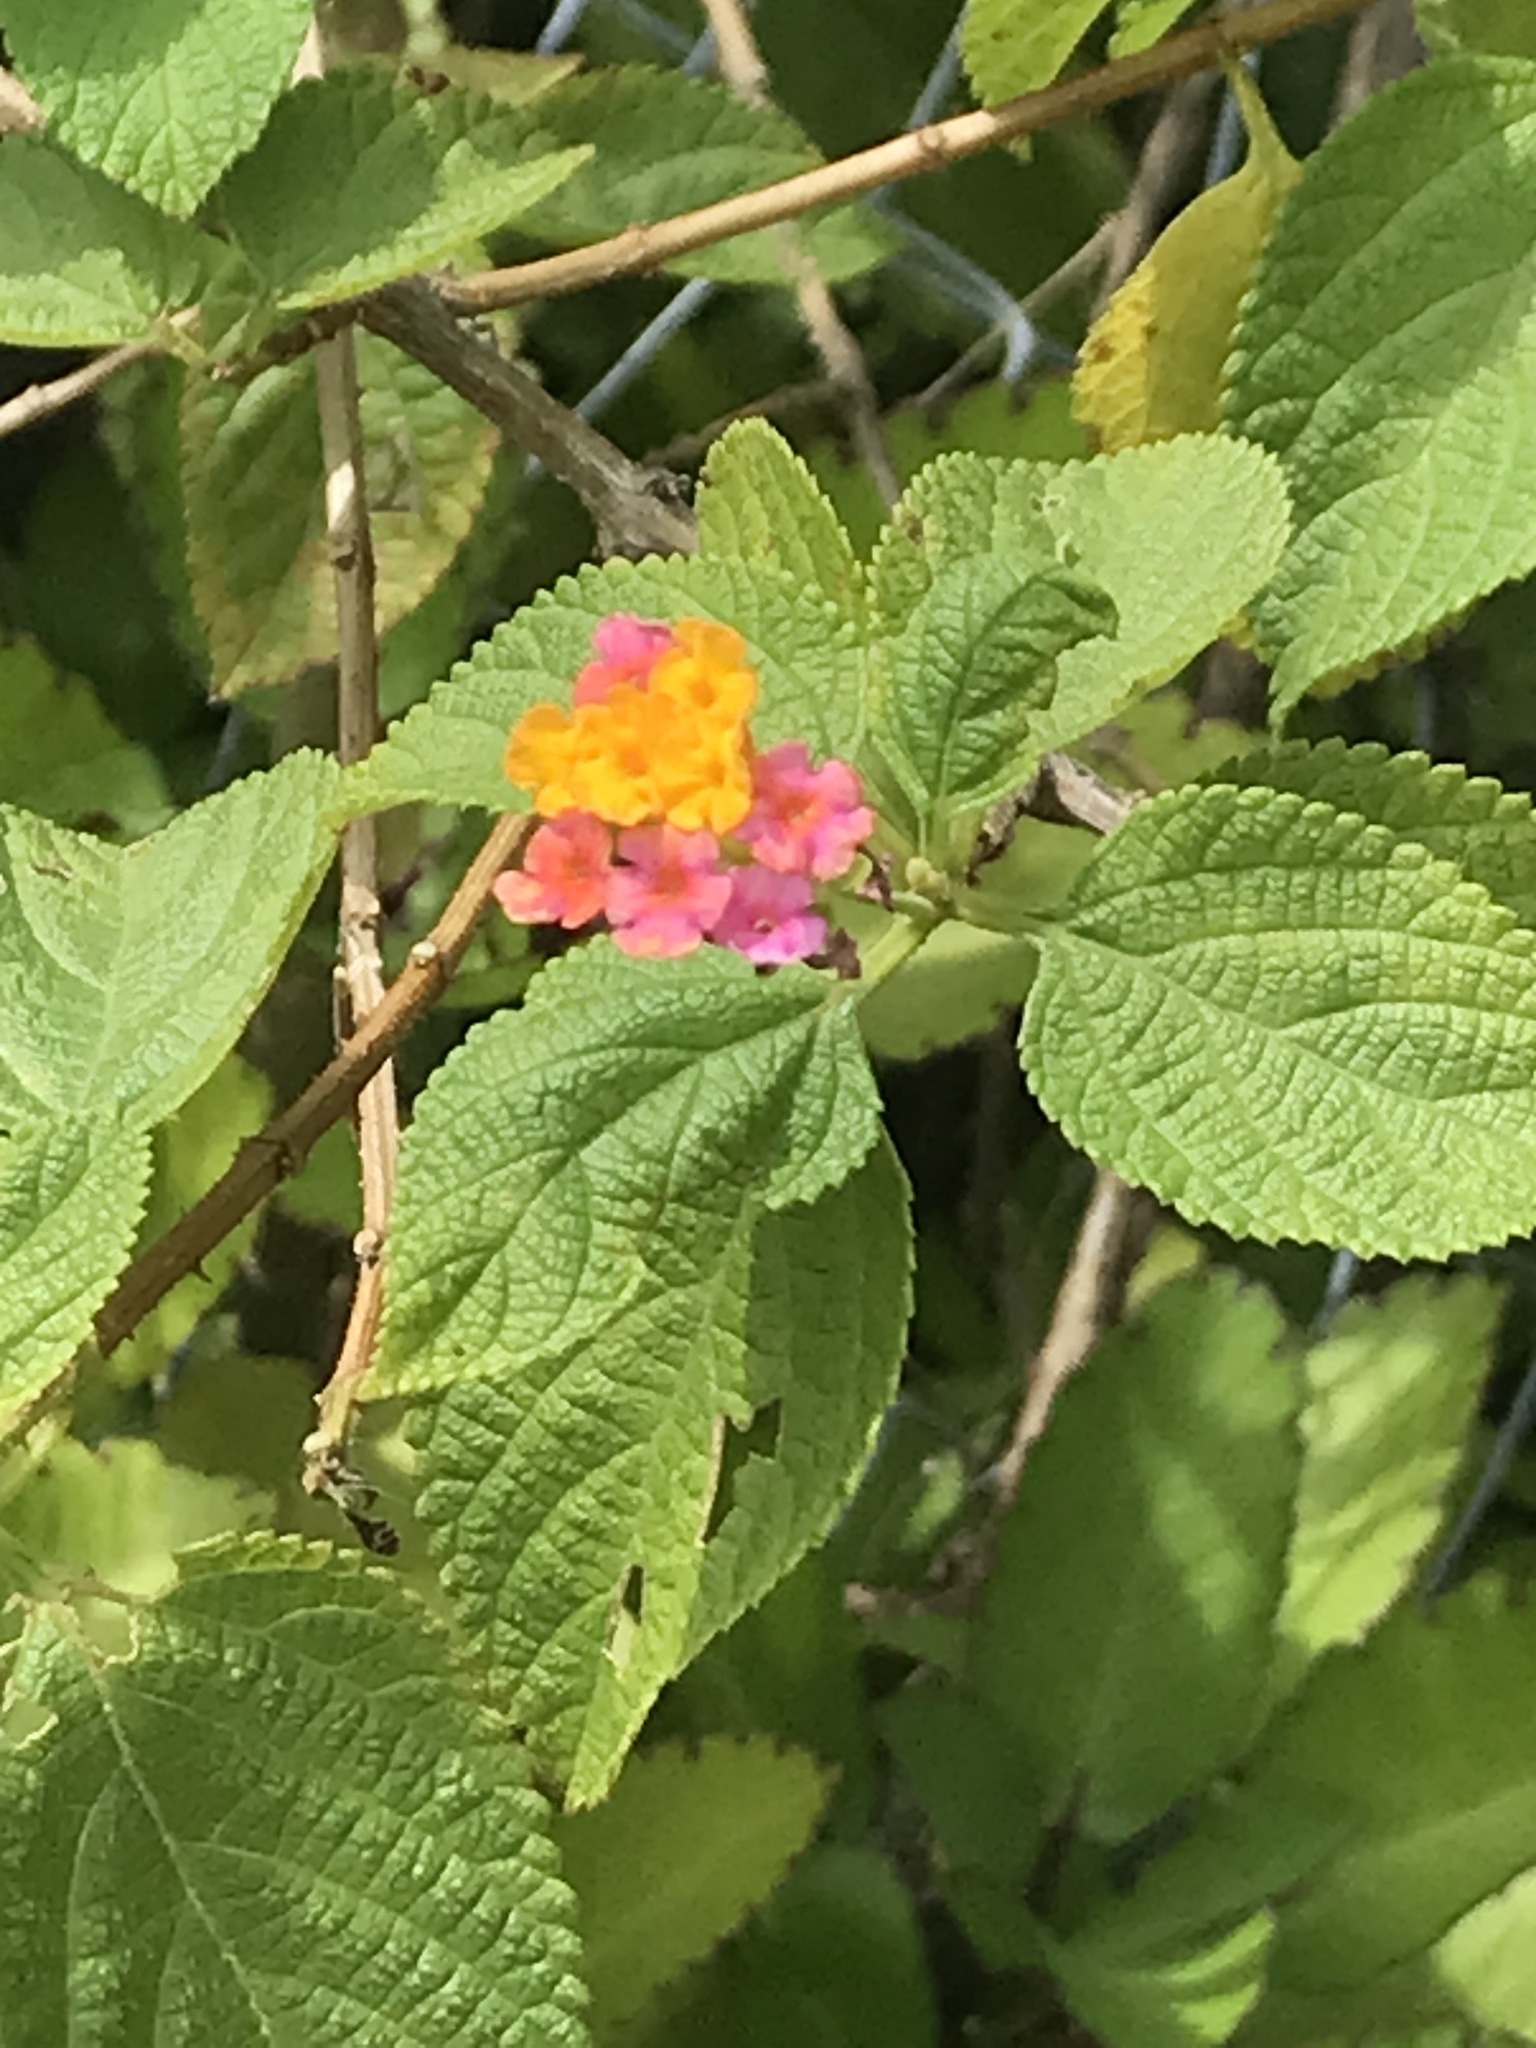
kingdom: Plantae
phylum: Tracheophyta
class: Magnoliopsida
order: Lamiales
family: Verbenaceae
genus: Lantana
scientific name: Lantana camara
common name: Lantana
